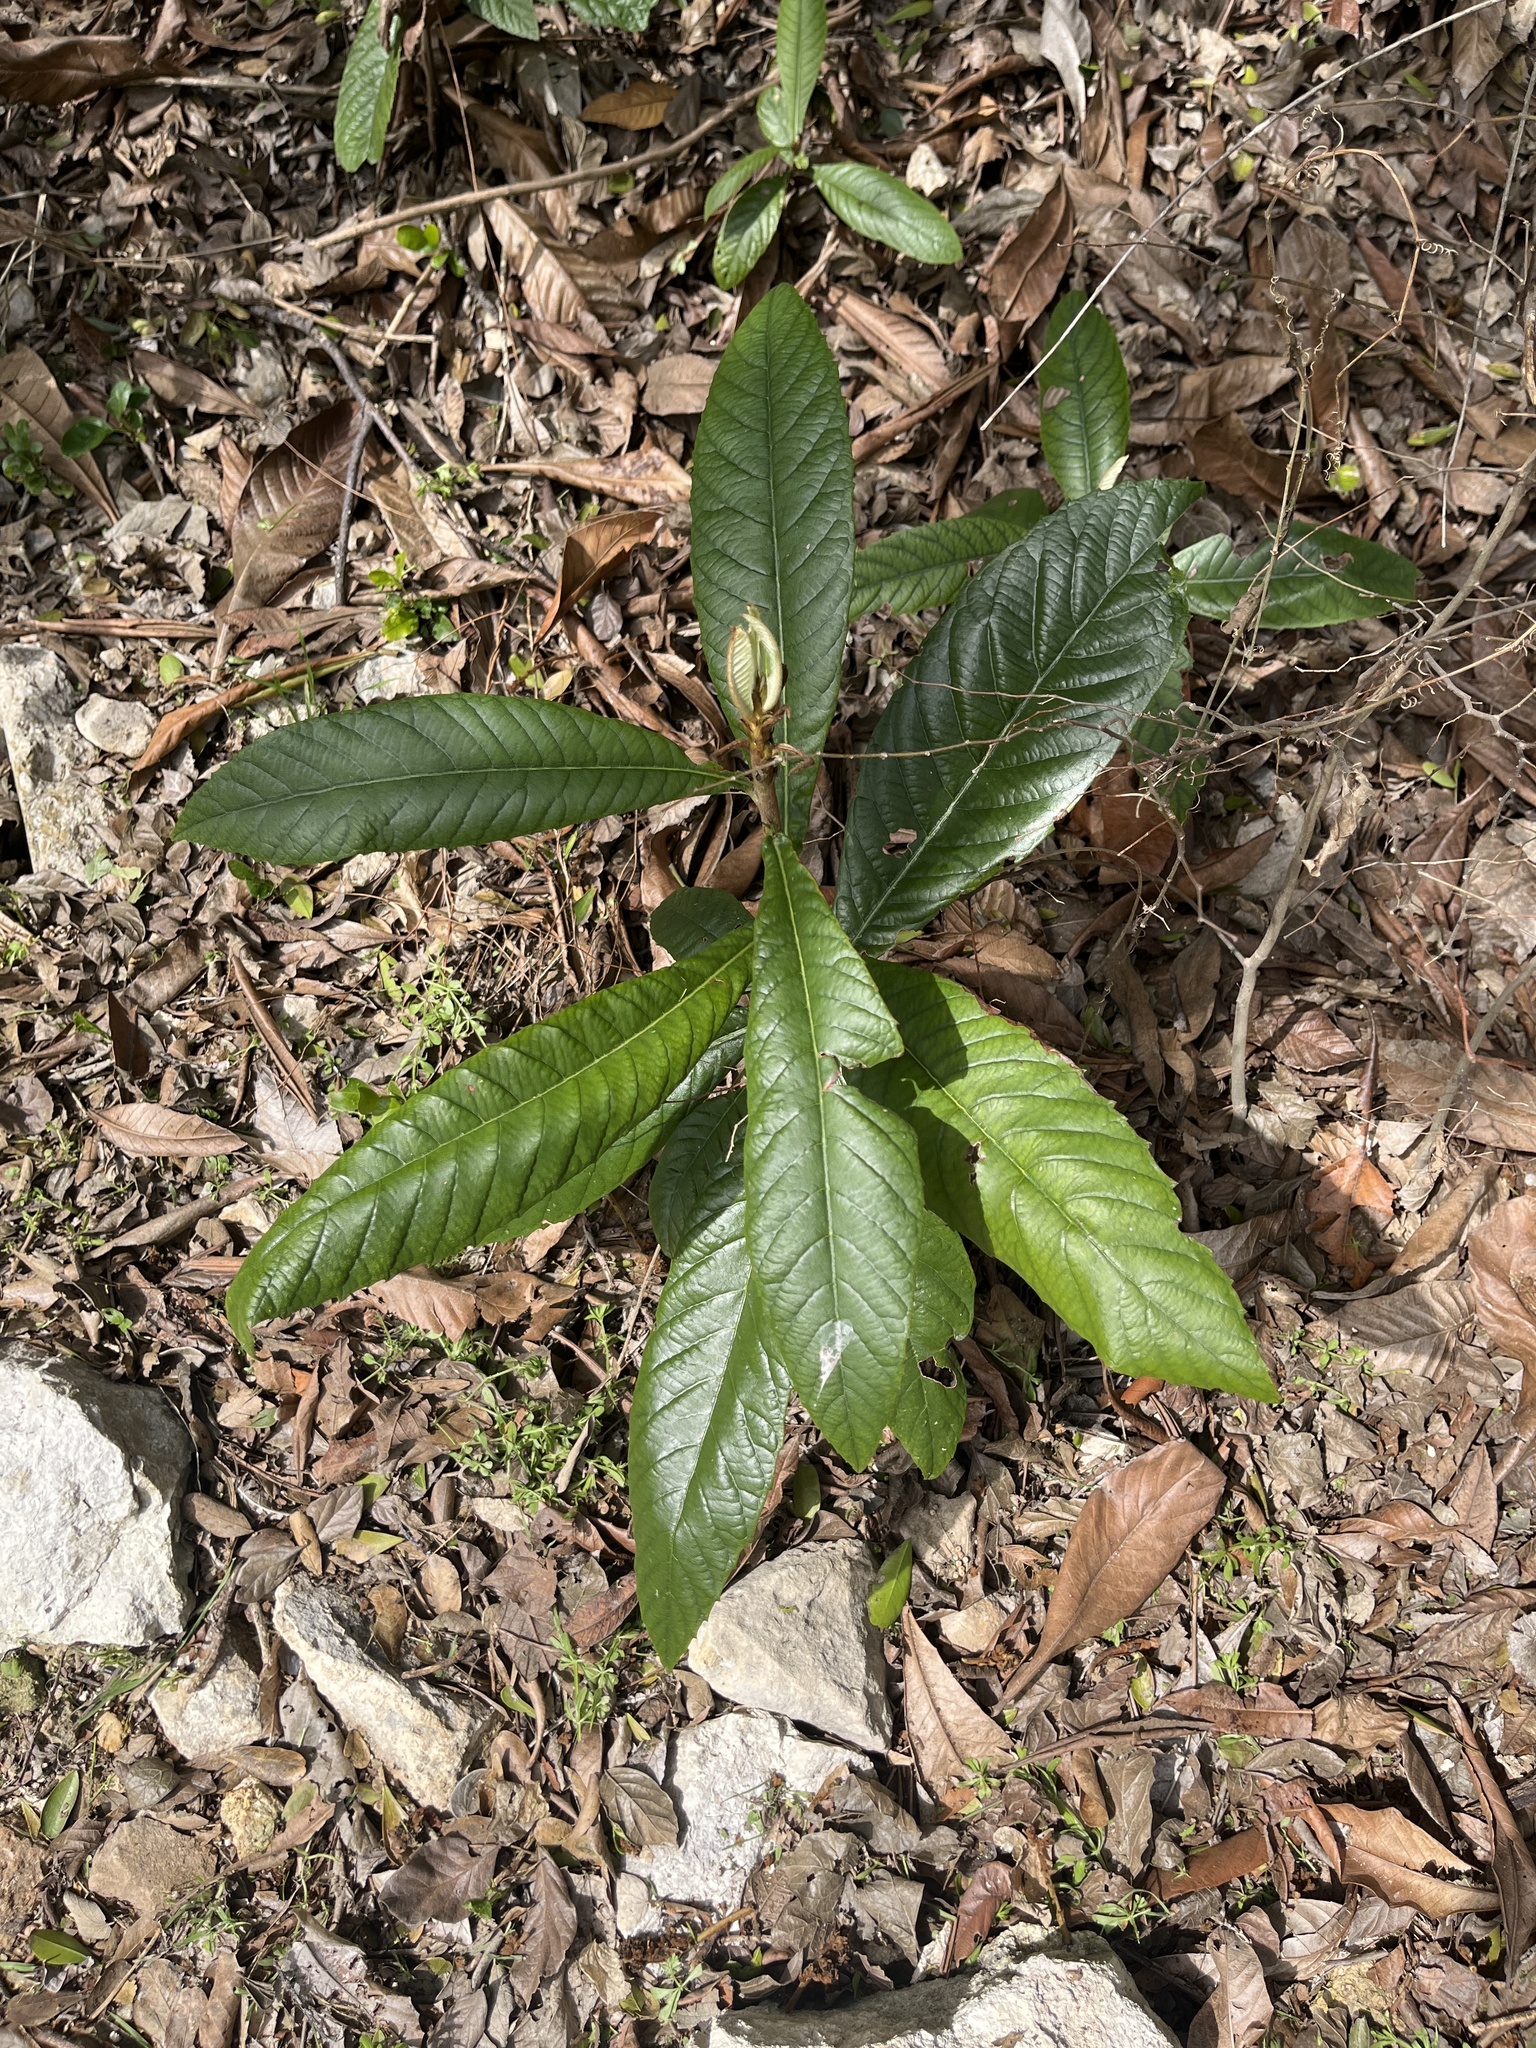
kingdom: Plantae
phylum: Tracheophyta
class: Magnoliopsida
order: Rosales
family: Rosaceae
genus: Rhaphiolepis
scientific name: Rhaphiolepis bibas
